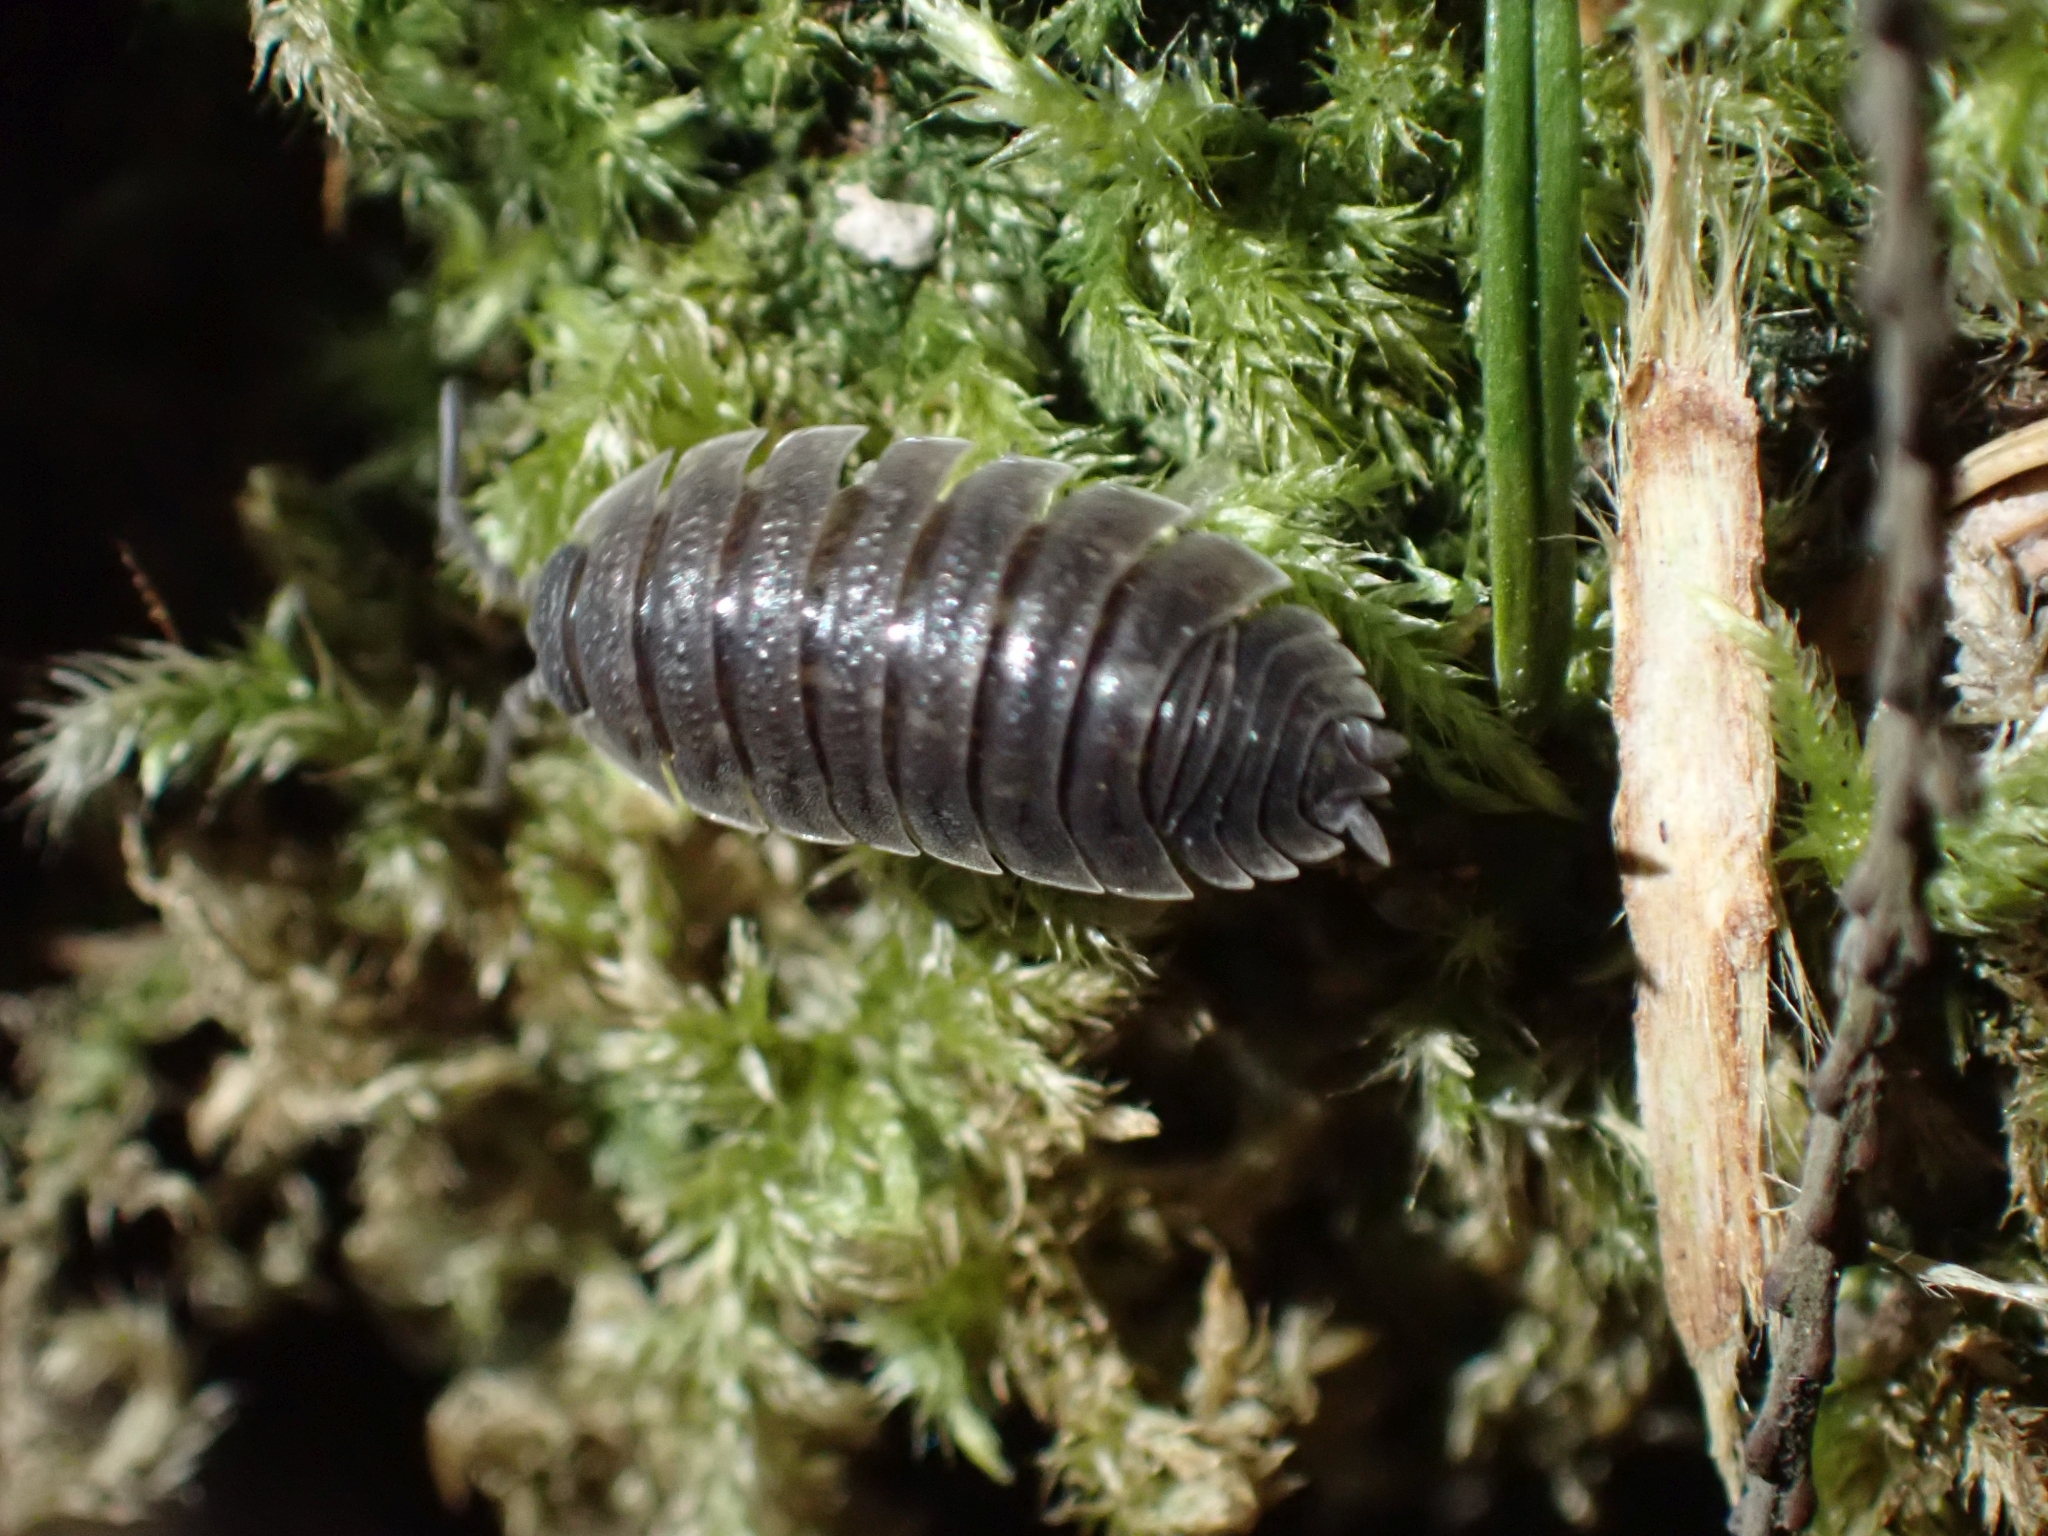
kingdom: Animalia
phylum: Arthropoda
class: Malacostraca
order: Isopoda
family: Porcellionidae
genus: Porcellio
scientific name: Porcellio scaber
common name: Common rough woodlouse
